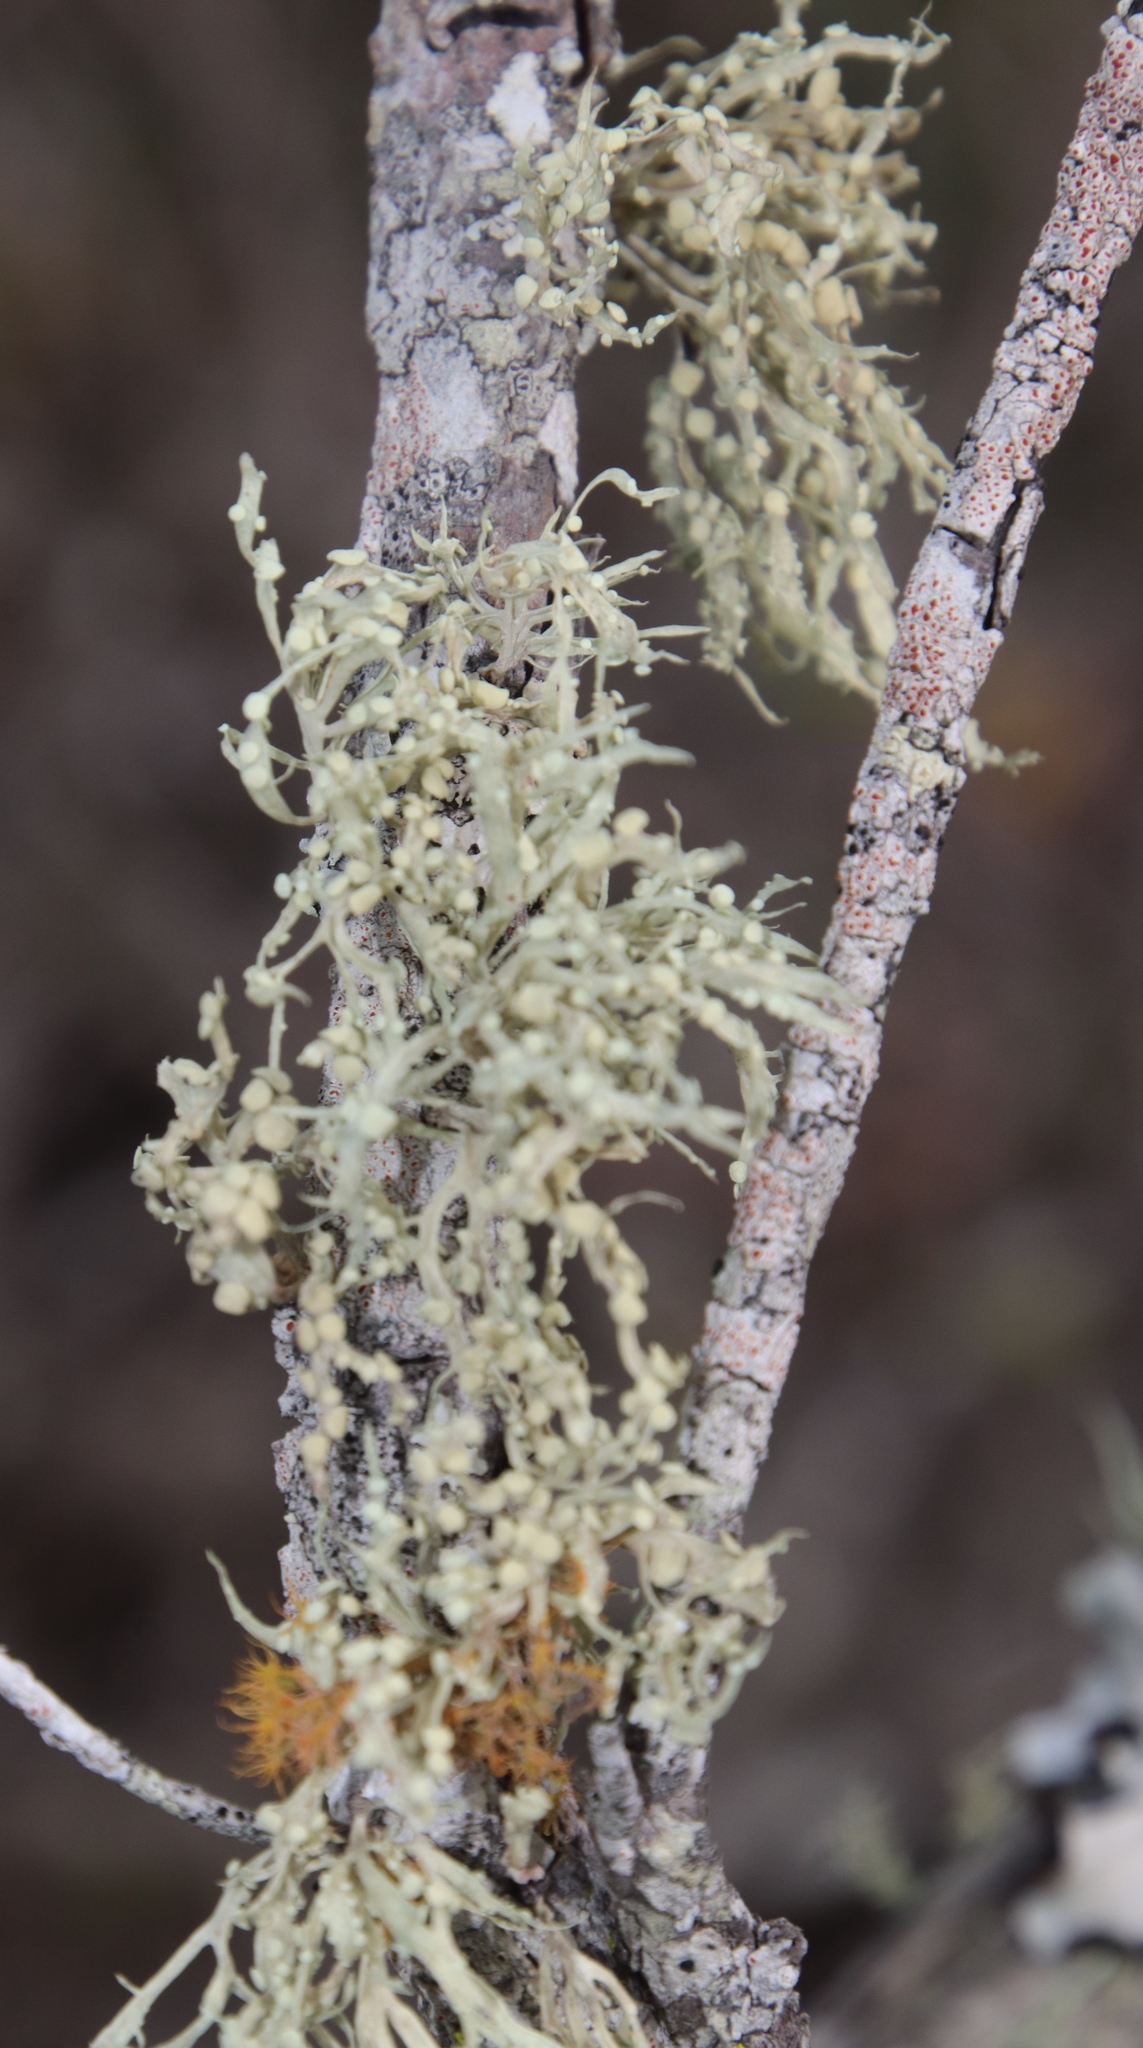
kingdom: Fungi
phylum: Ascomycota
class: Lecanoromycetes
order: Lecanorales
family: Ramalinaceae
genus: Ramalina
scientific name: Ramalina celastri
